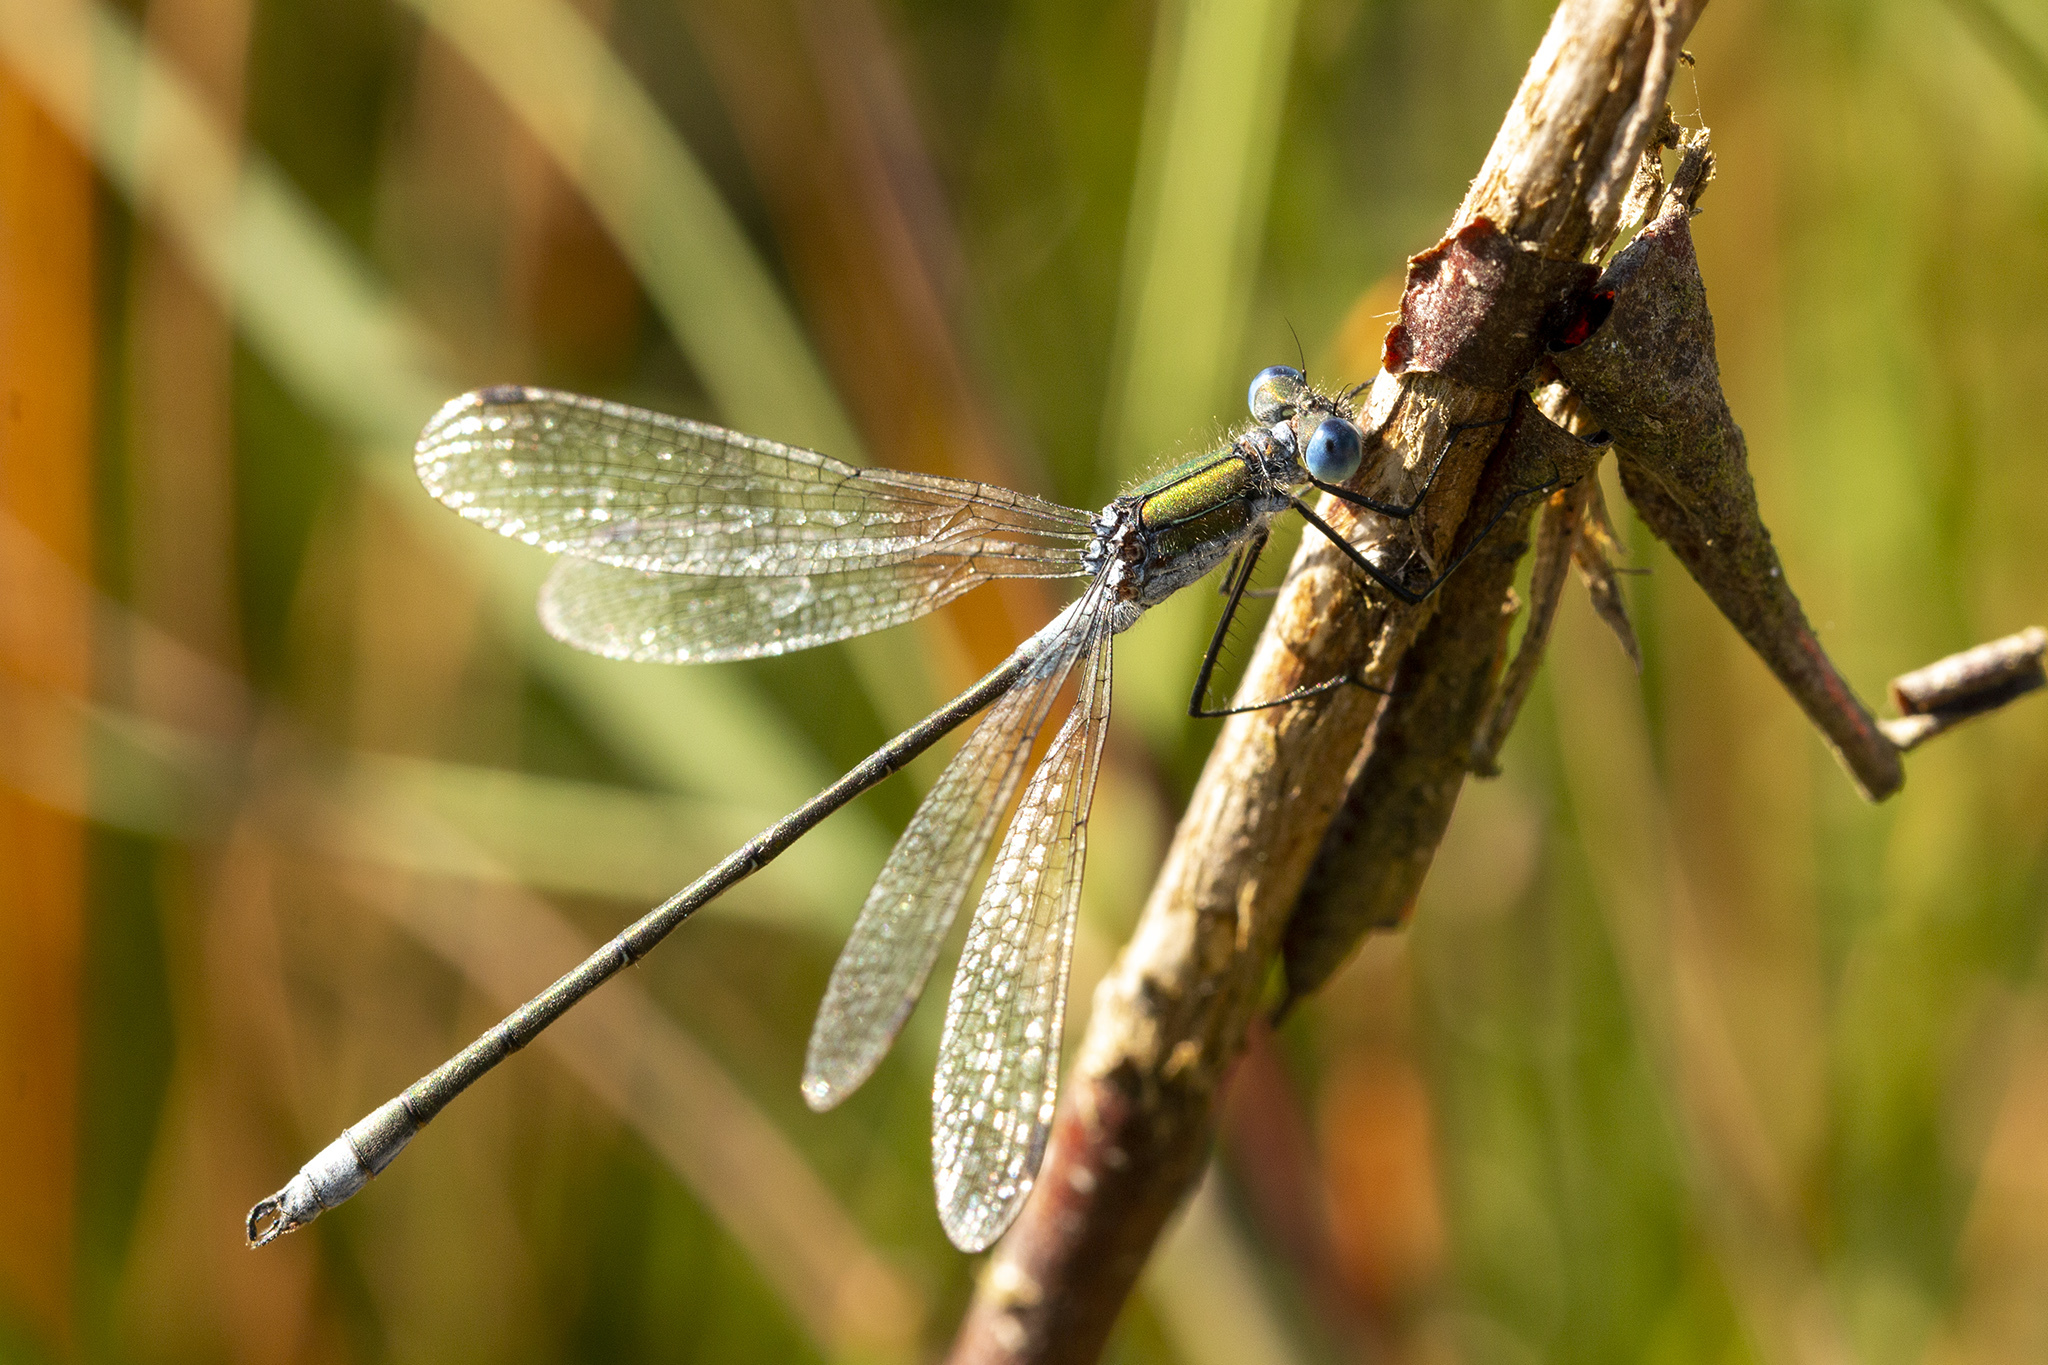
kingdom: Animalia
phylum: Arthropoda
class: Insecta
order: Odonata
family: Lestidae
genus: Lestes
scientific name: Lestes sponsa
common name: Common spreadwing
